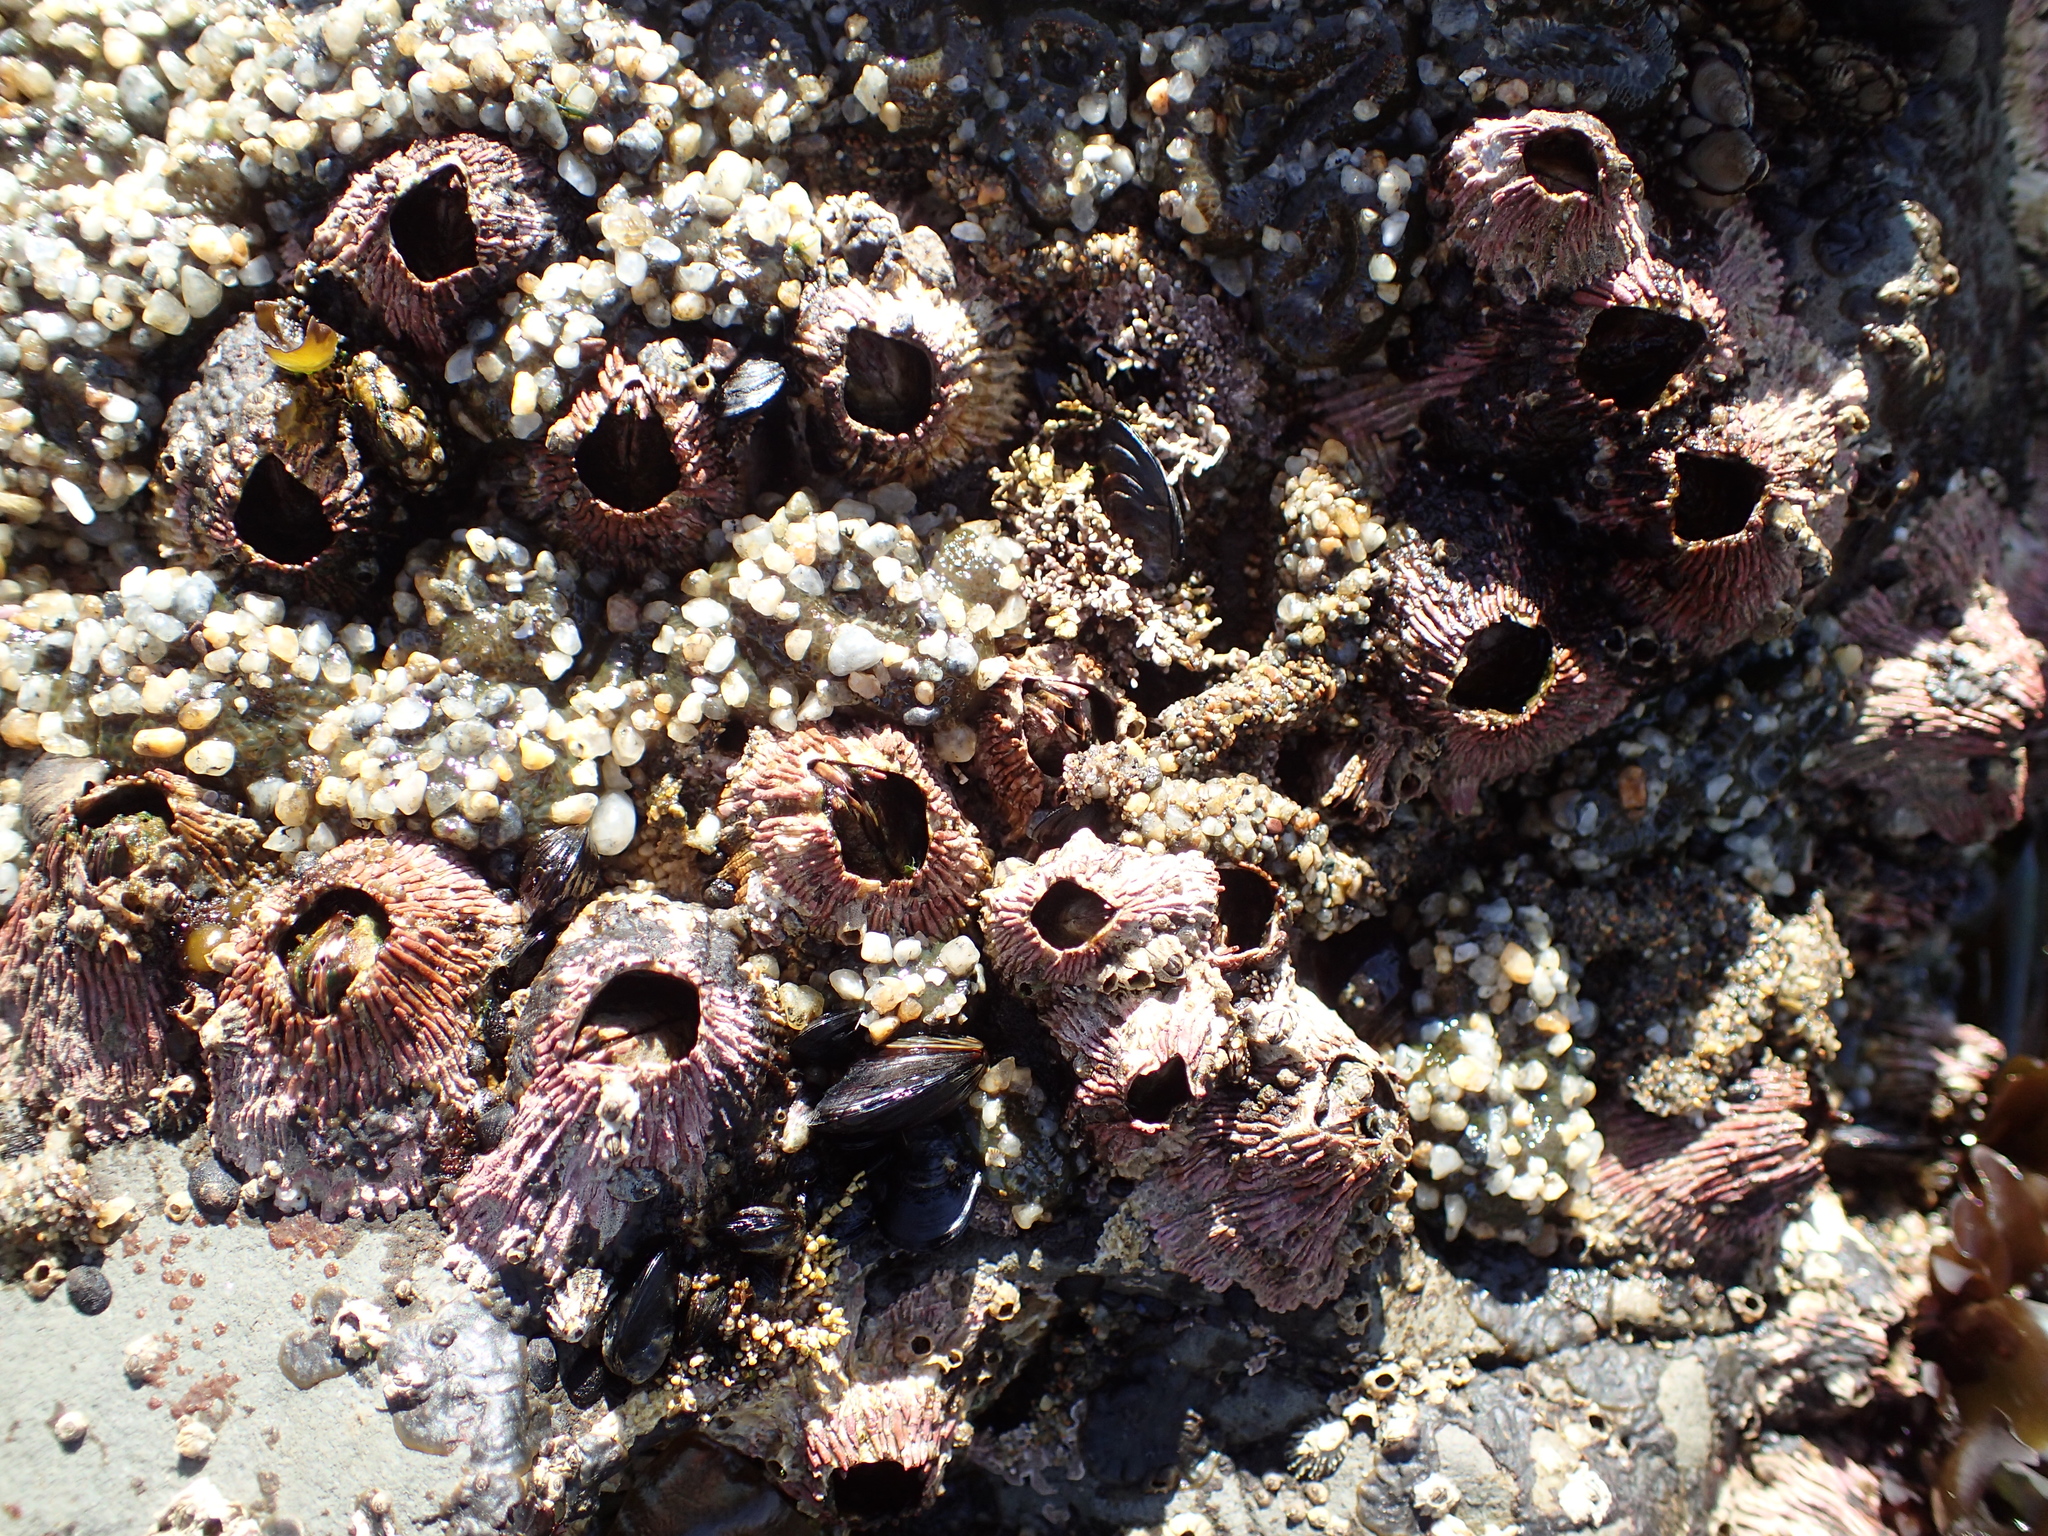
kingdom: Animalia
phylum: Arthropoda
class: Maxillopoda
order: Sessilia
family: Tetraclitidae
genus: Tetraclita
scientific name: Tetraclita rubescens
